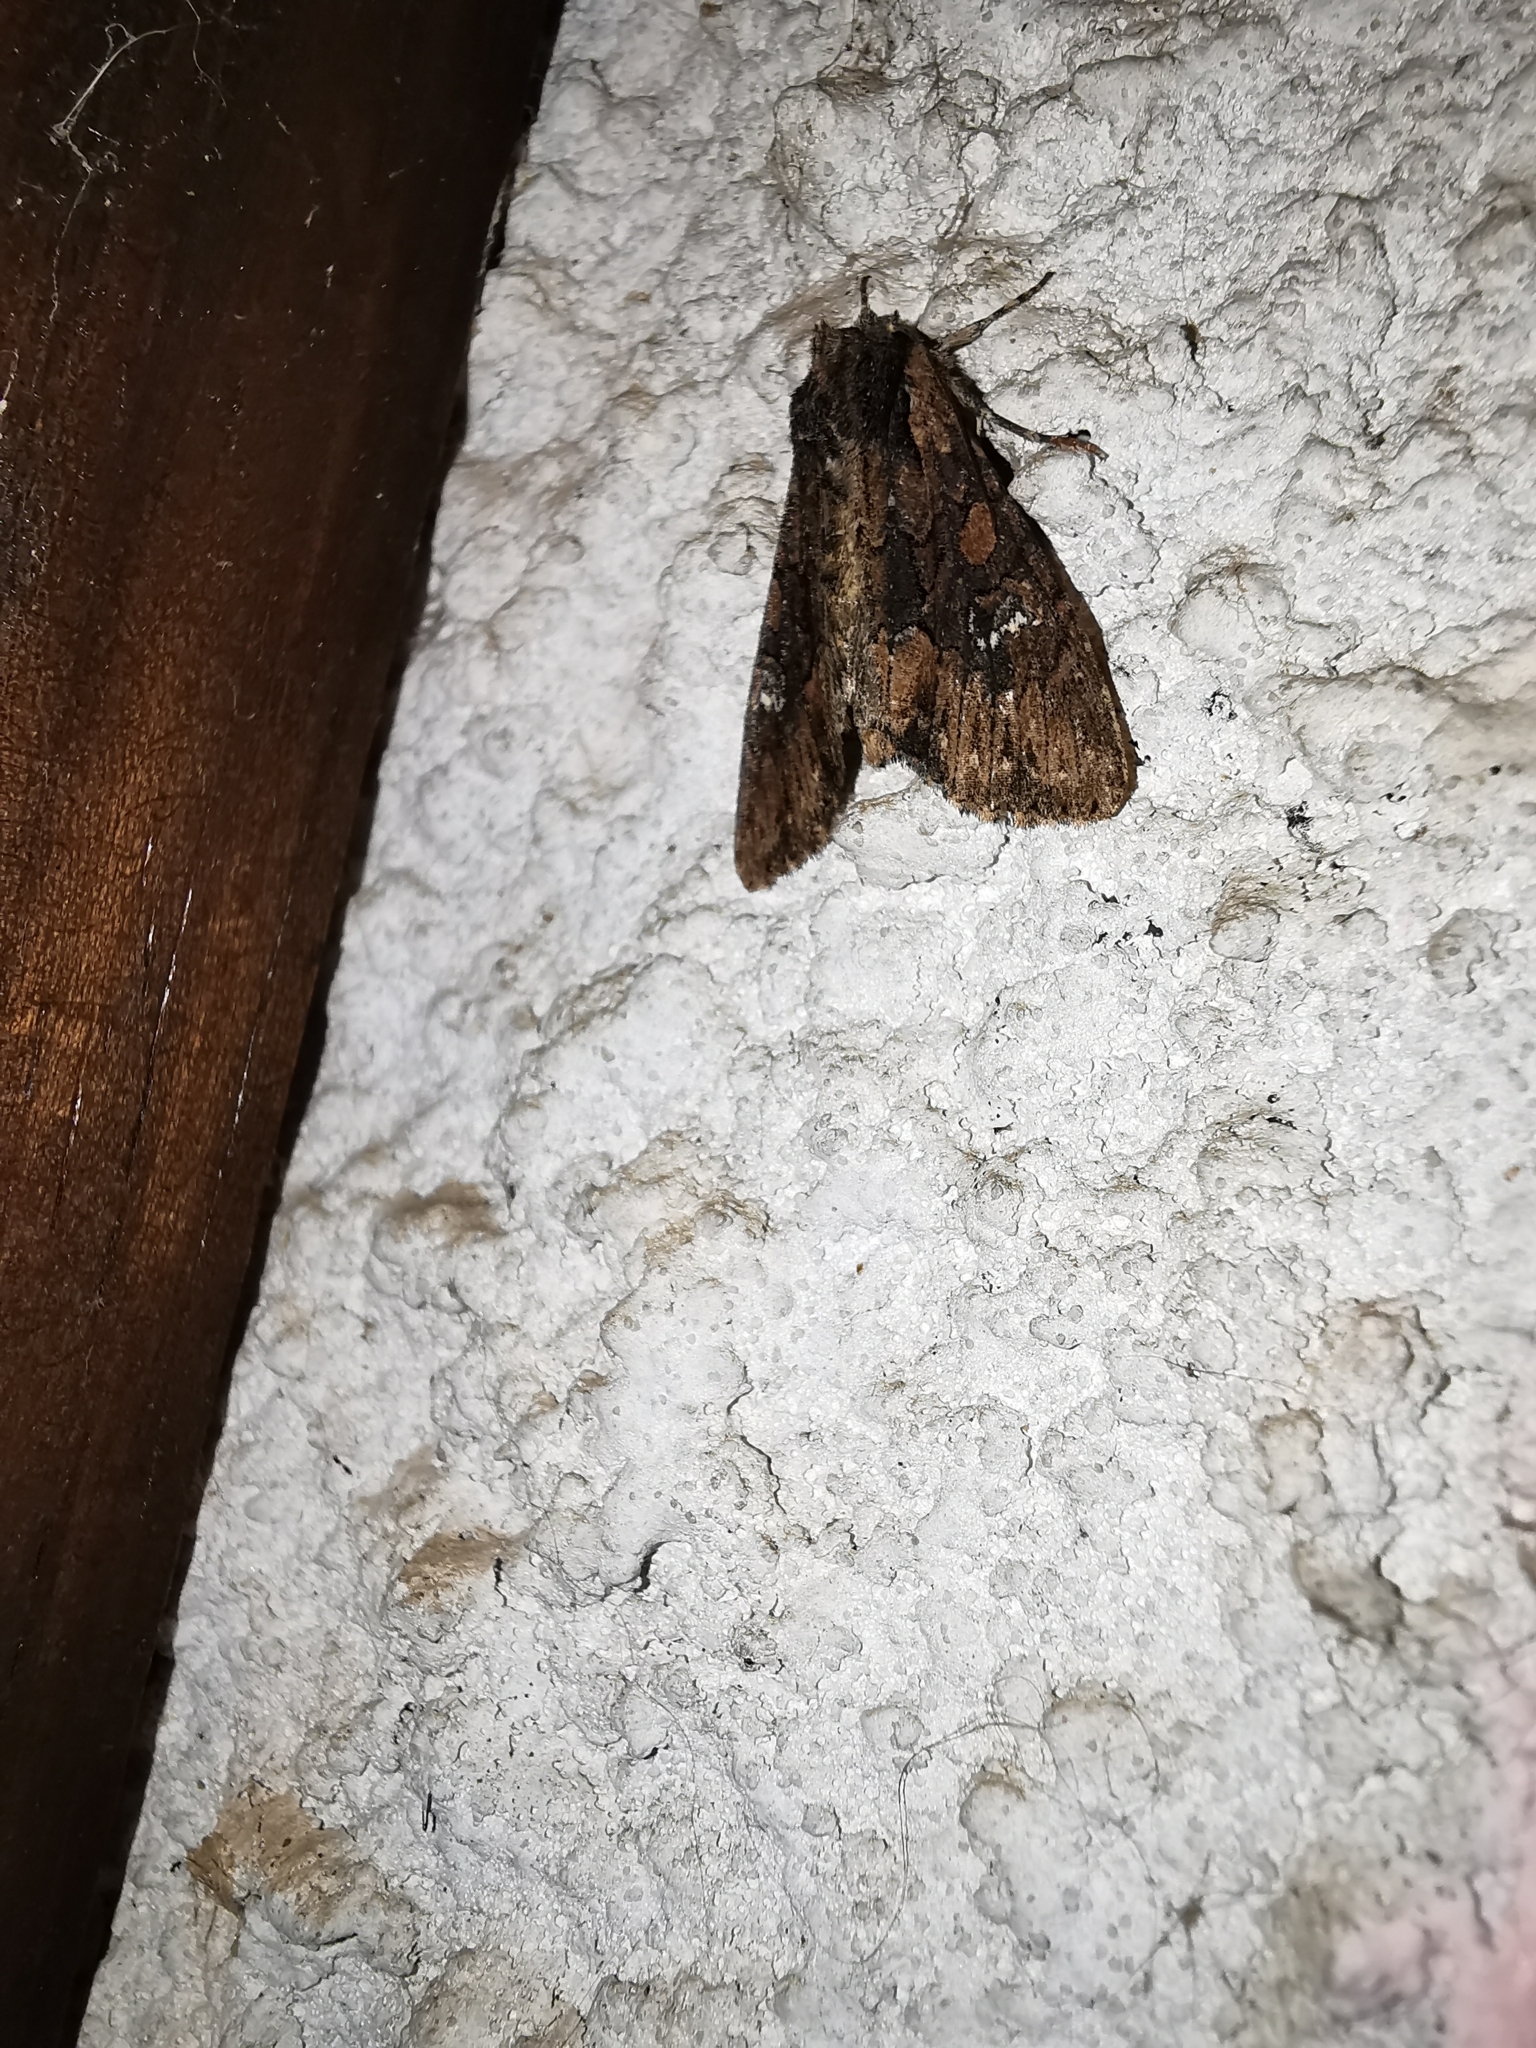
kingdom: Animalia
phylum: Arthropoda
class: Insecta
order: Lepidoptera
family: Noctuidae
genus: Mniotype
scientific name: Mniotype solieri
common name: Bedrule brocade
